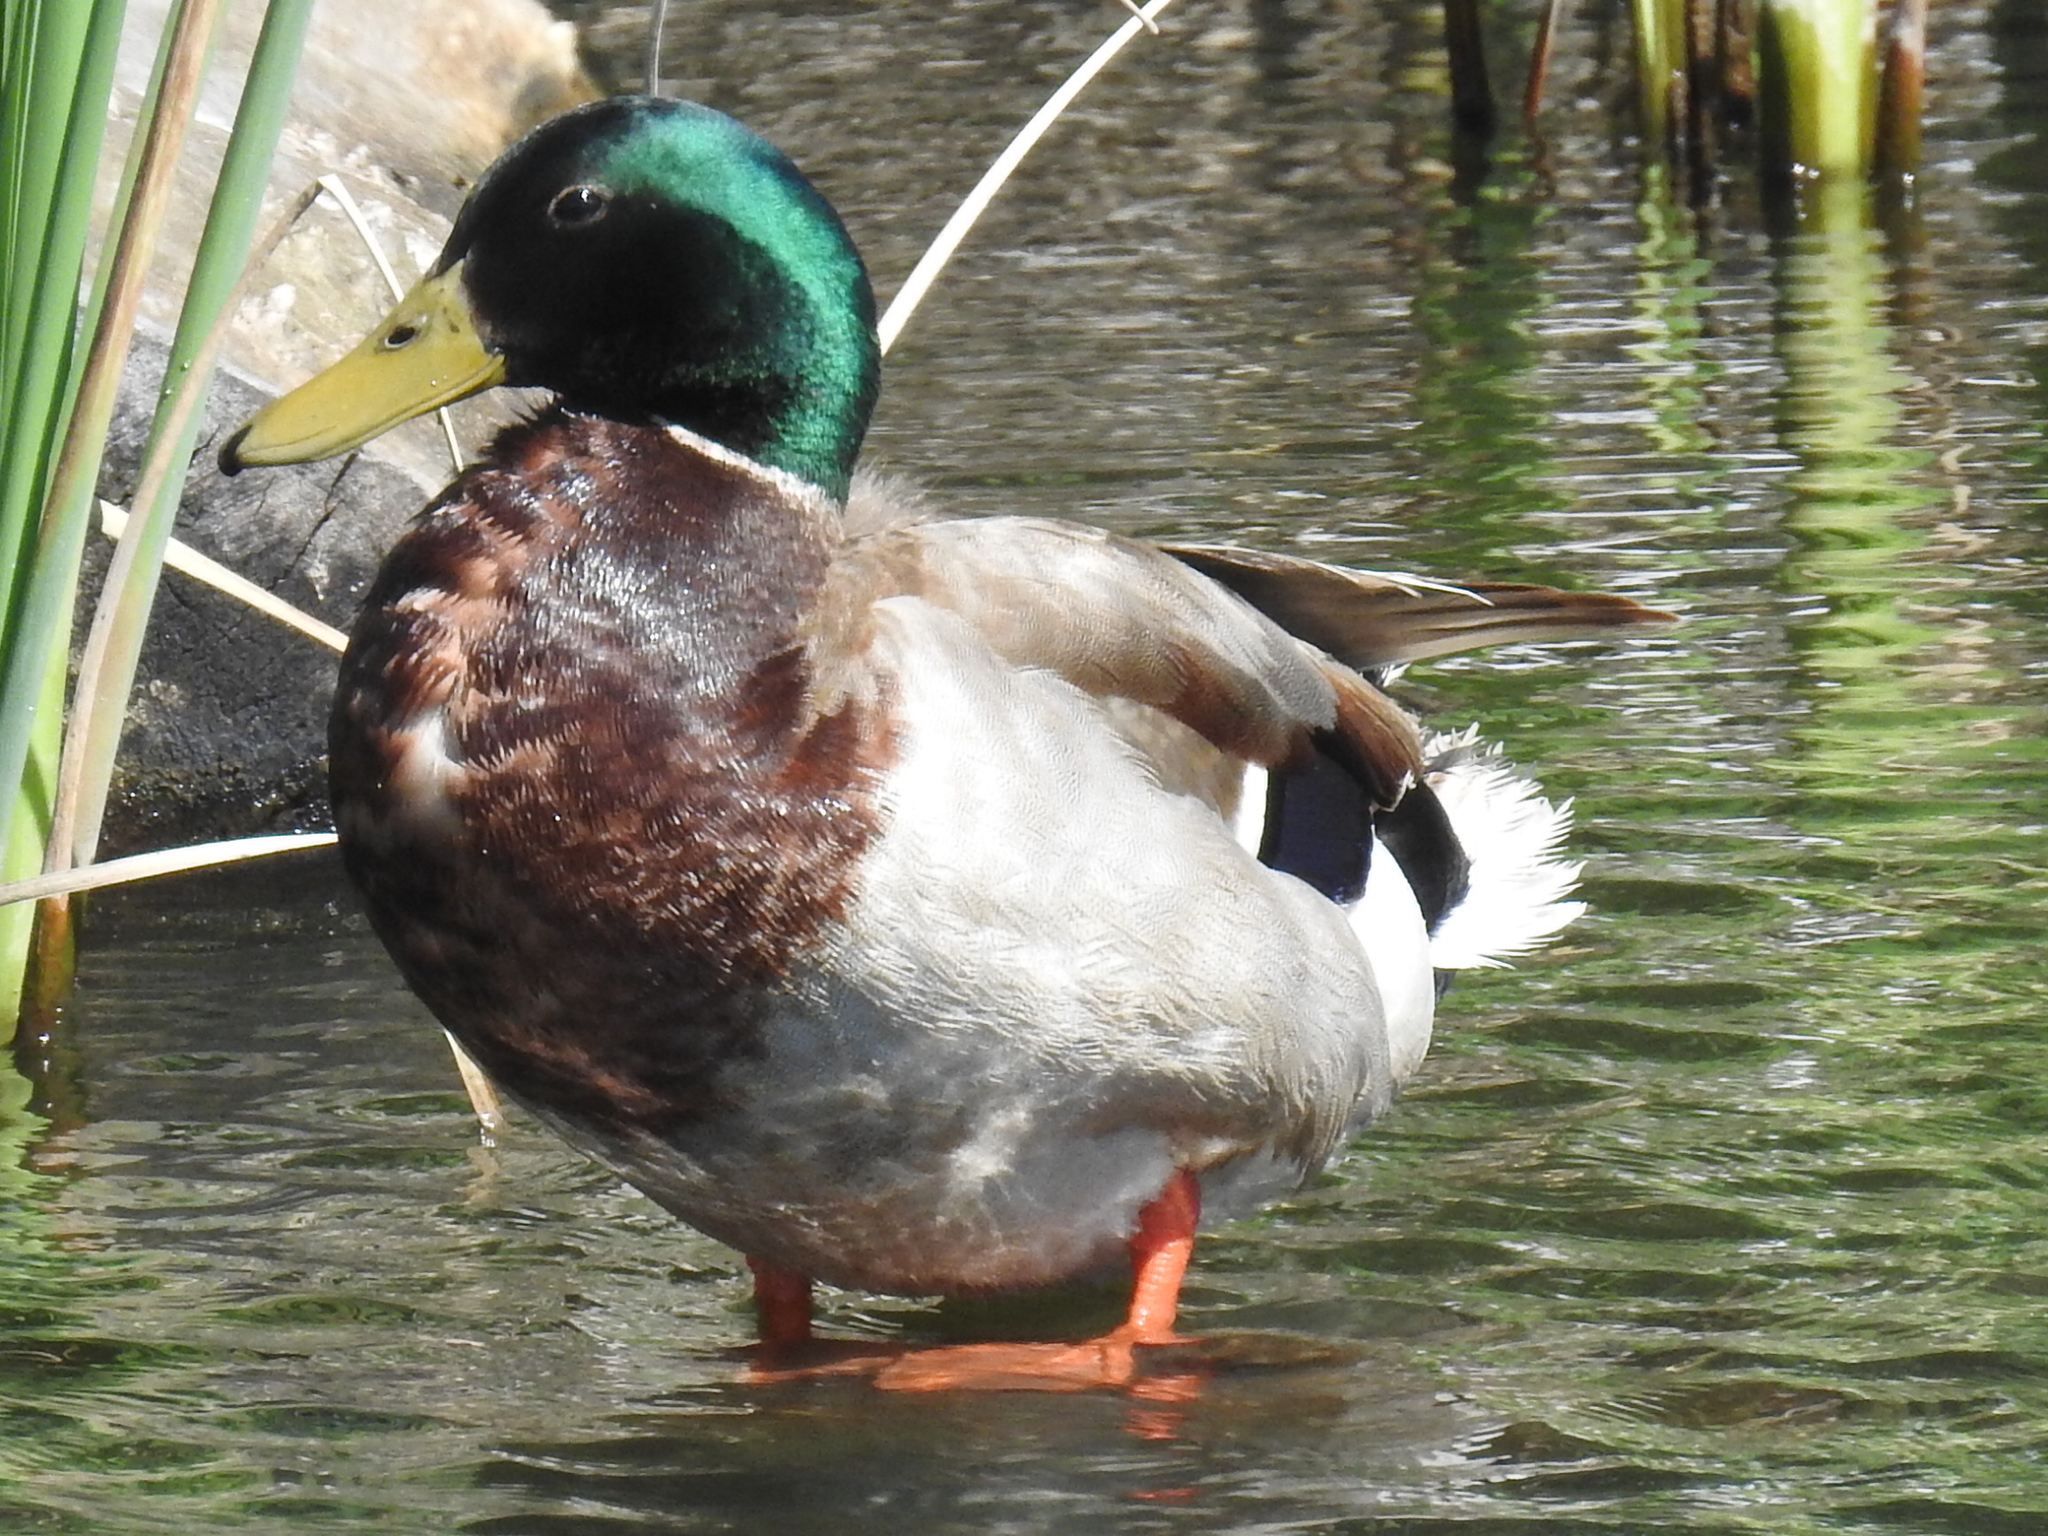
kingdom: Animalia
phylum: Chordata
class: Aves
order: Anseriformes
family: Anatidae
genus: Anas
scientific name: Anas platyrhynchos
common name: Mallard
